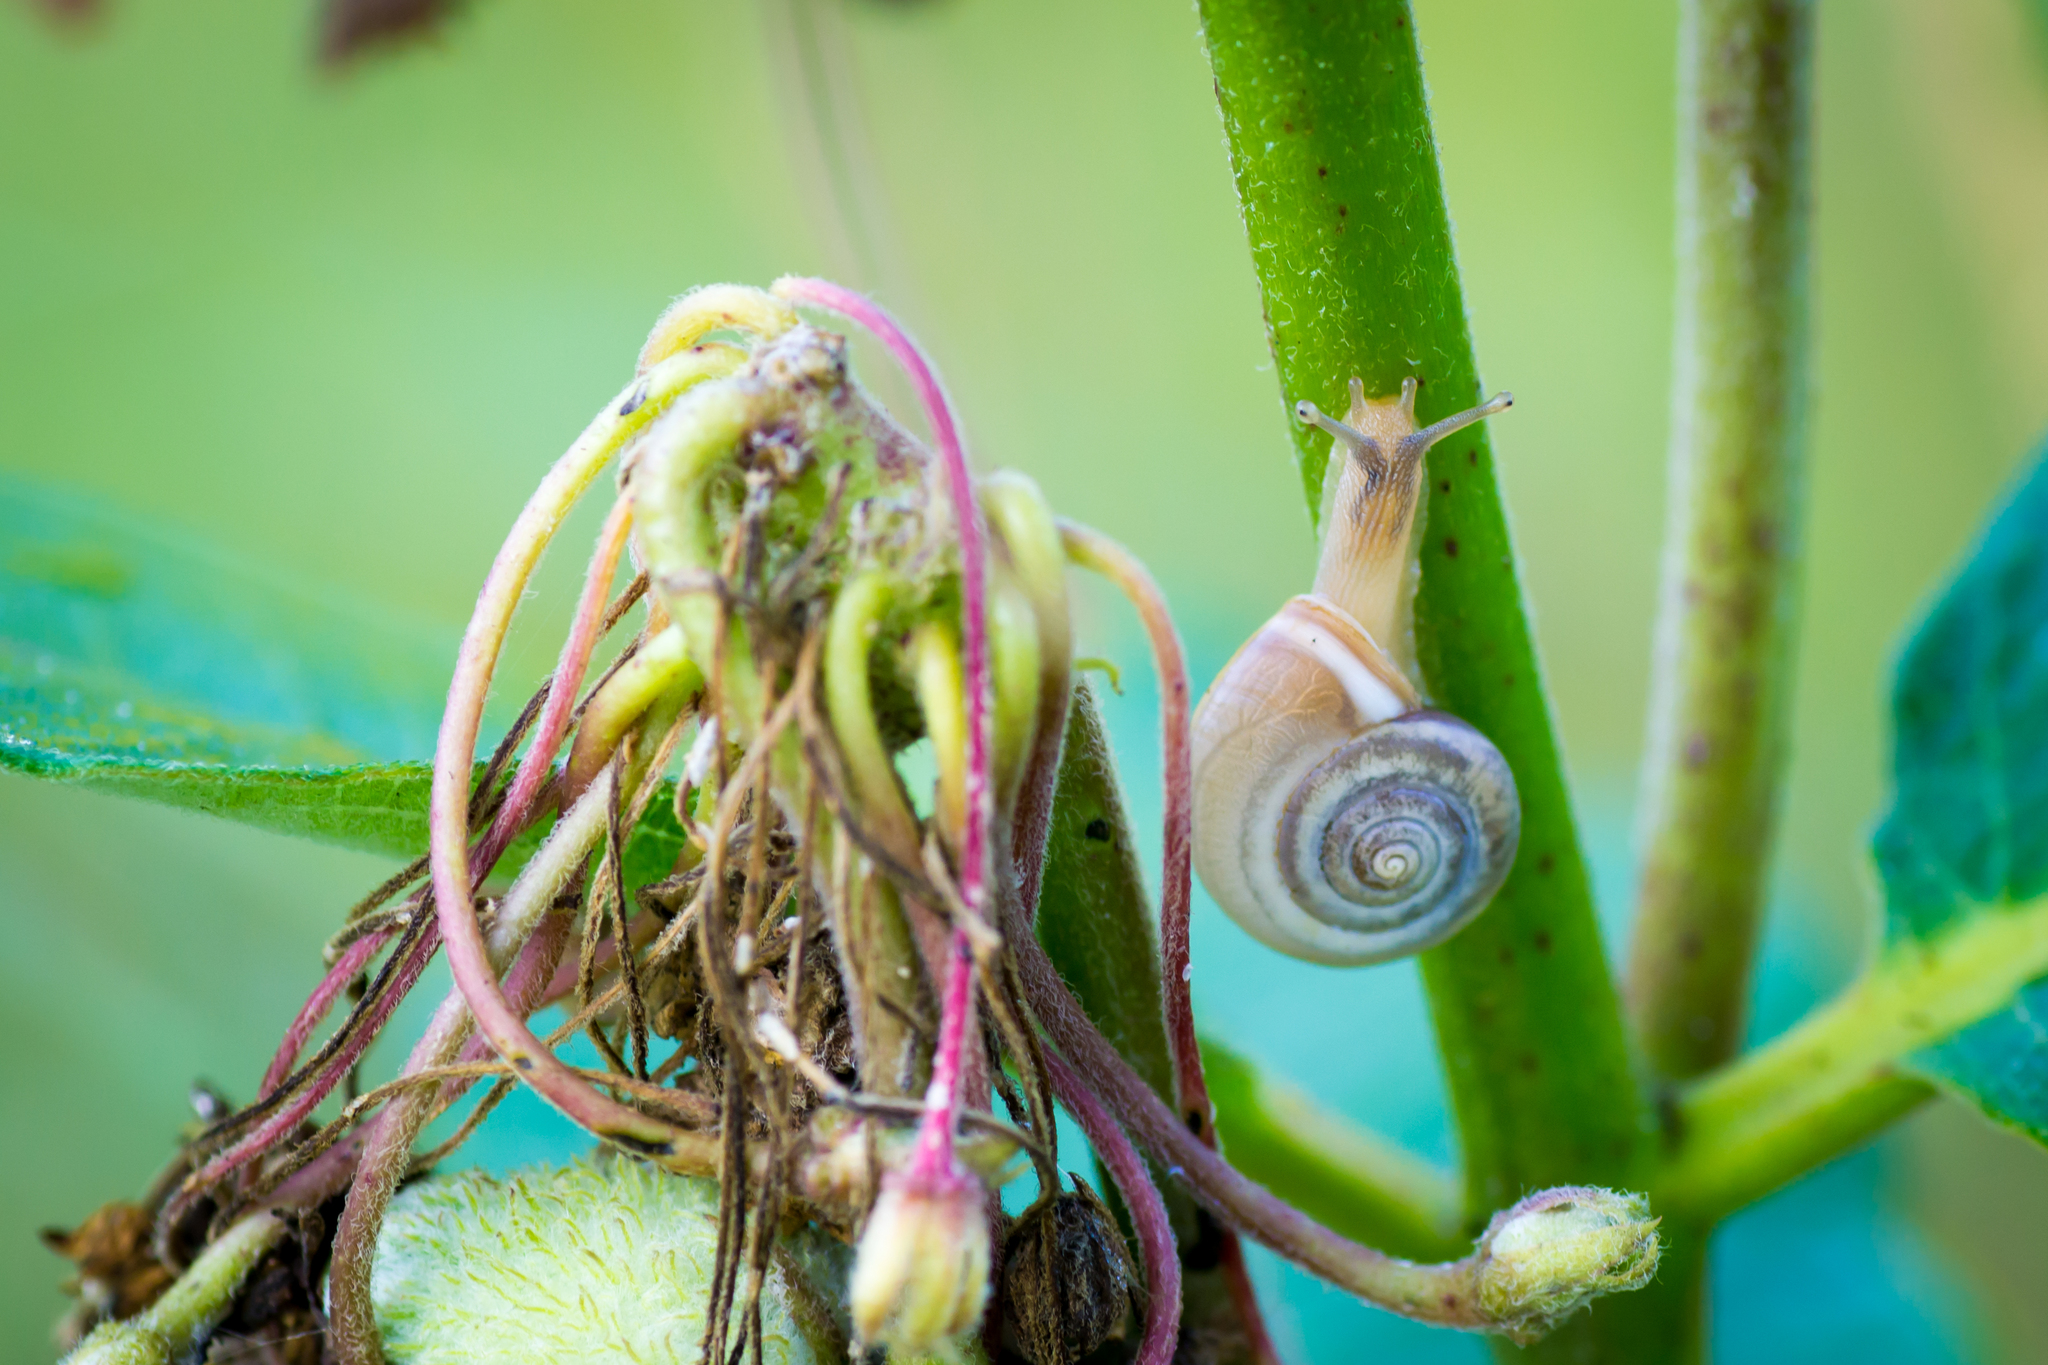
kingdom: Animalia
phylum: Mollusca
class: Gastropoda
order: Stylommatophora
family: Hygromiidae
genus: Monacha
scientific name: Monacha cartusiana
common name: Carthusian snail
